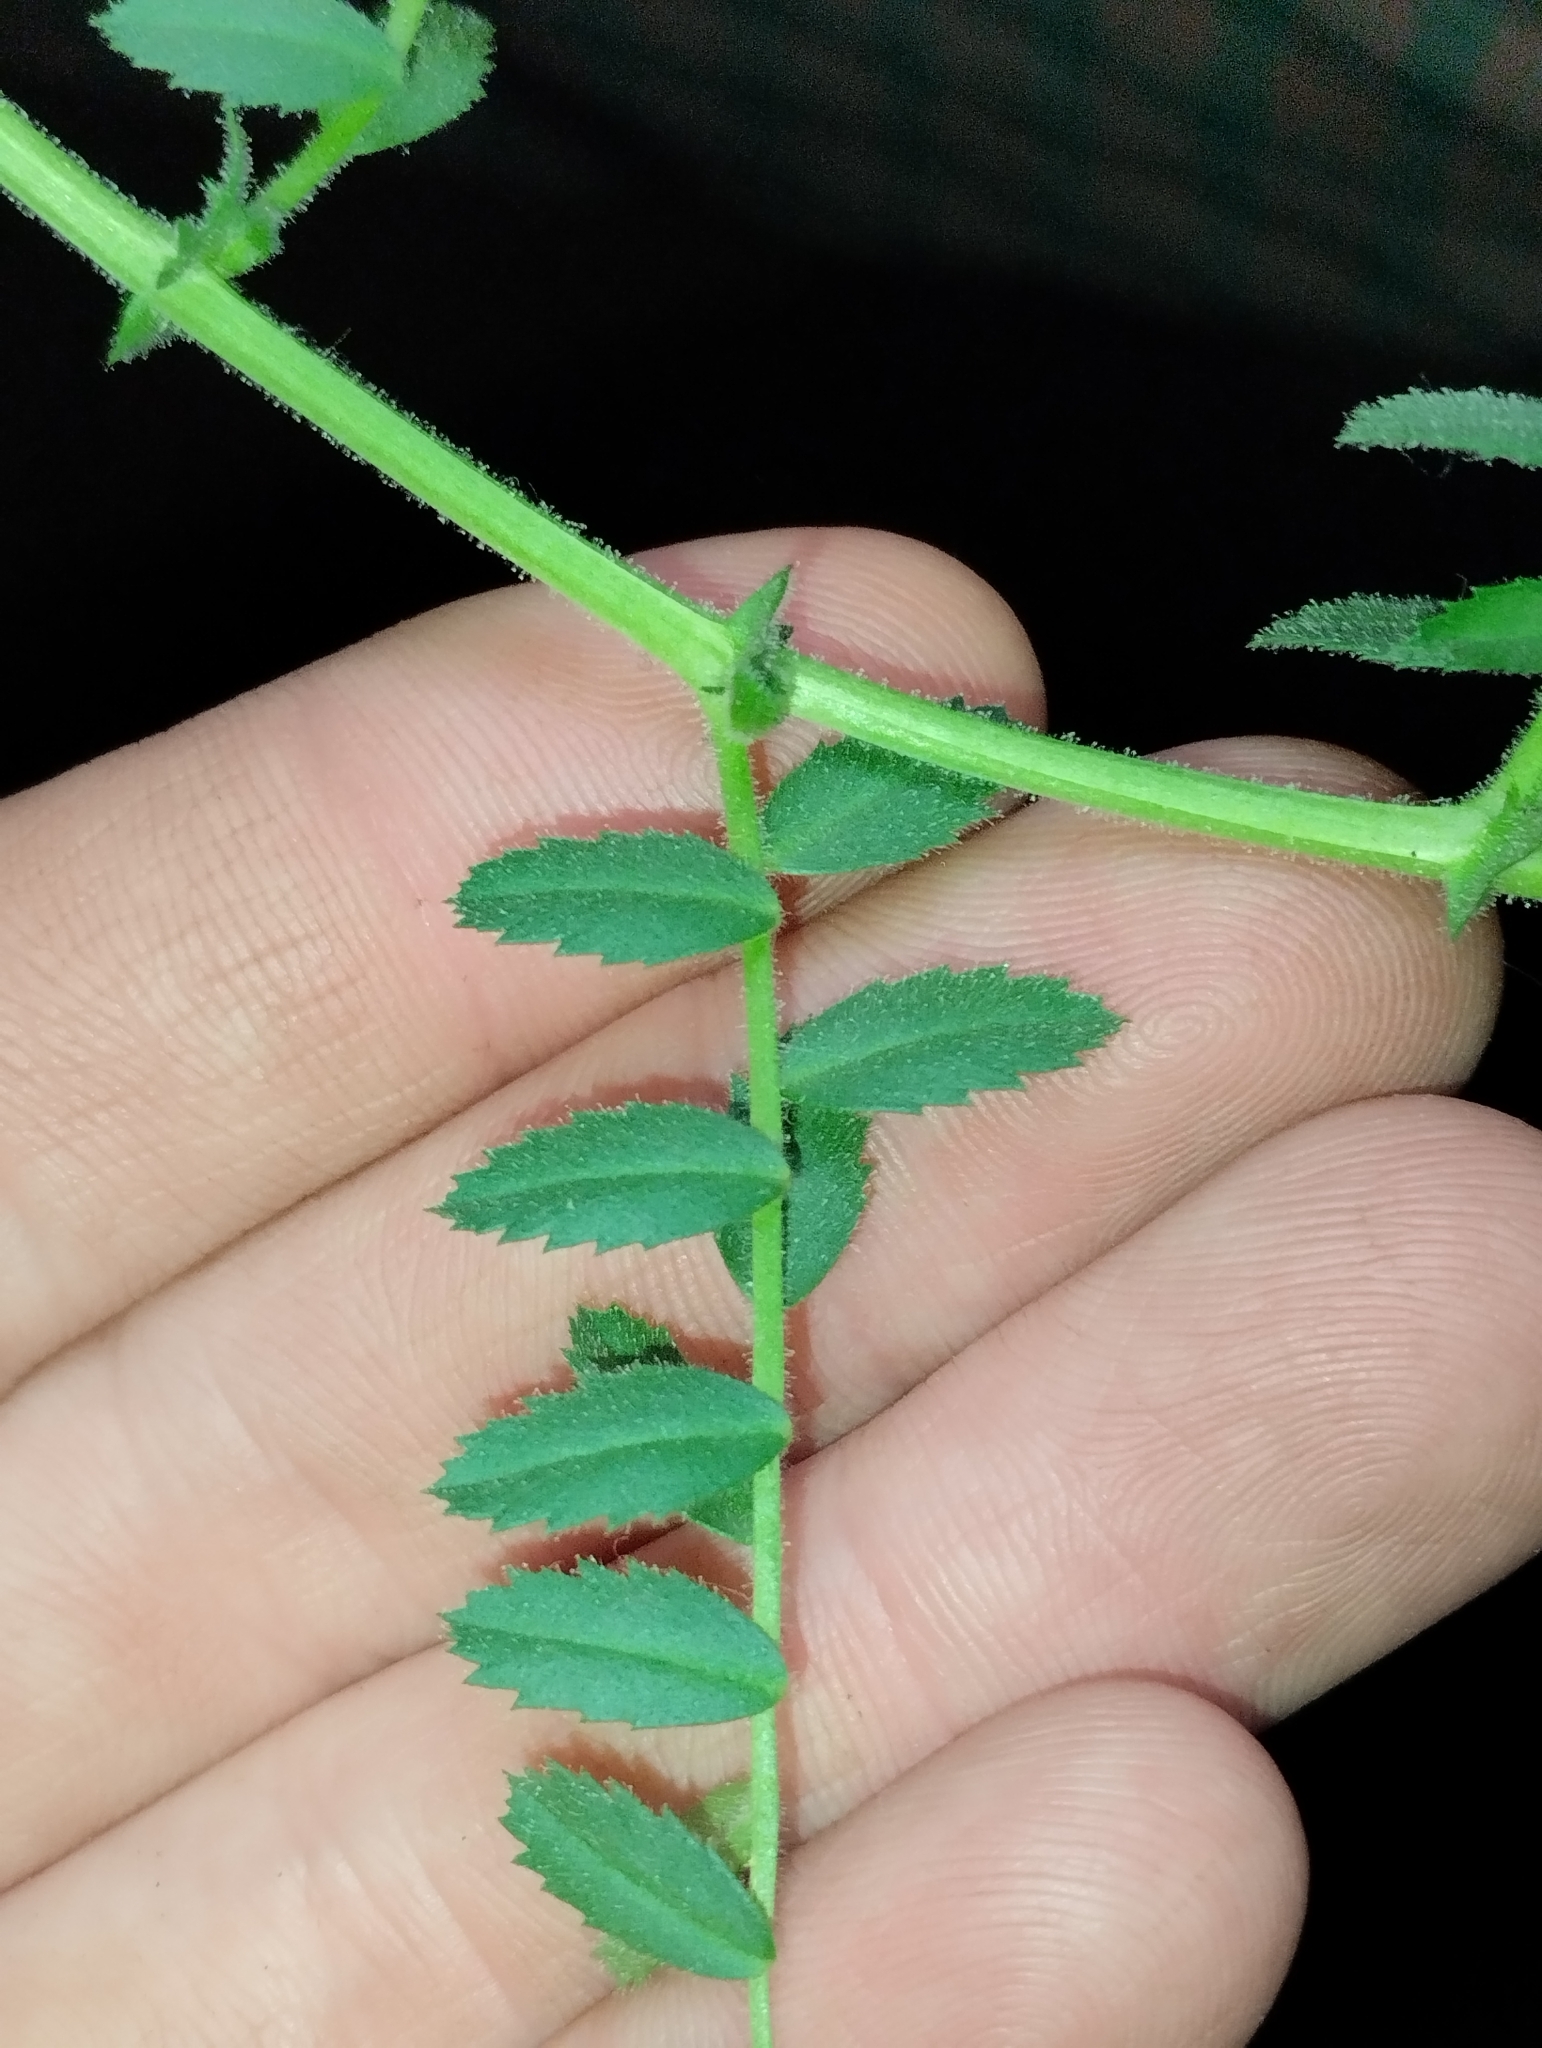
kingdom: Plantae
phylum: Tracheophyta
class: Magnoliopsida
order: Fabales
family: Fabaceae
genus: Cicer
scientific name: Cicer arietinum
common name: Chick pea
